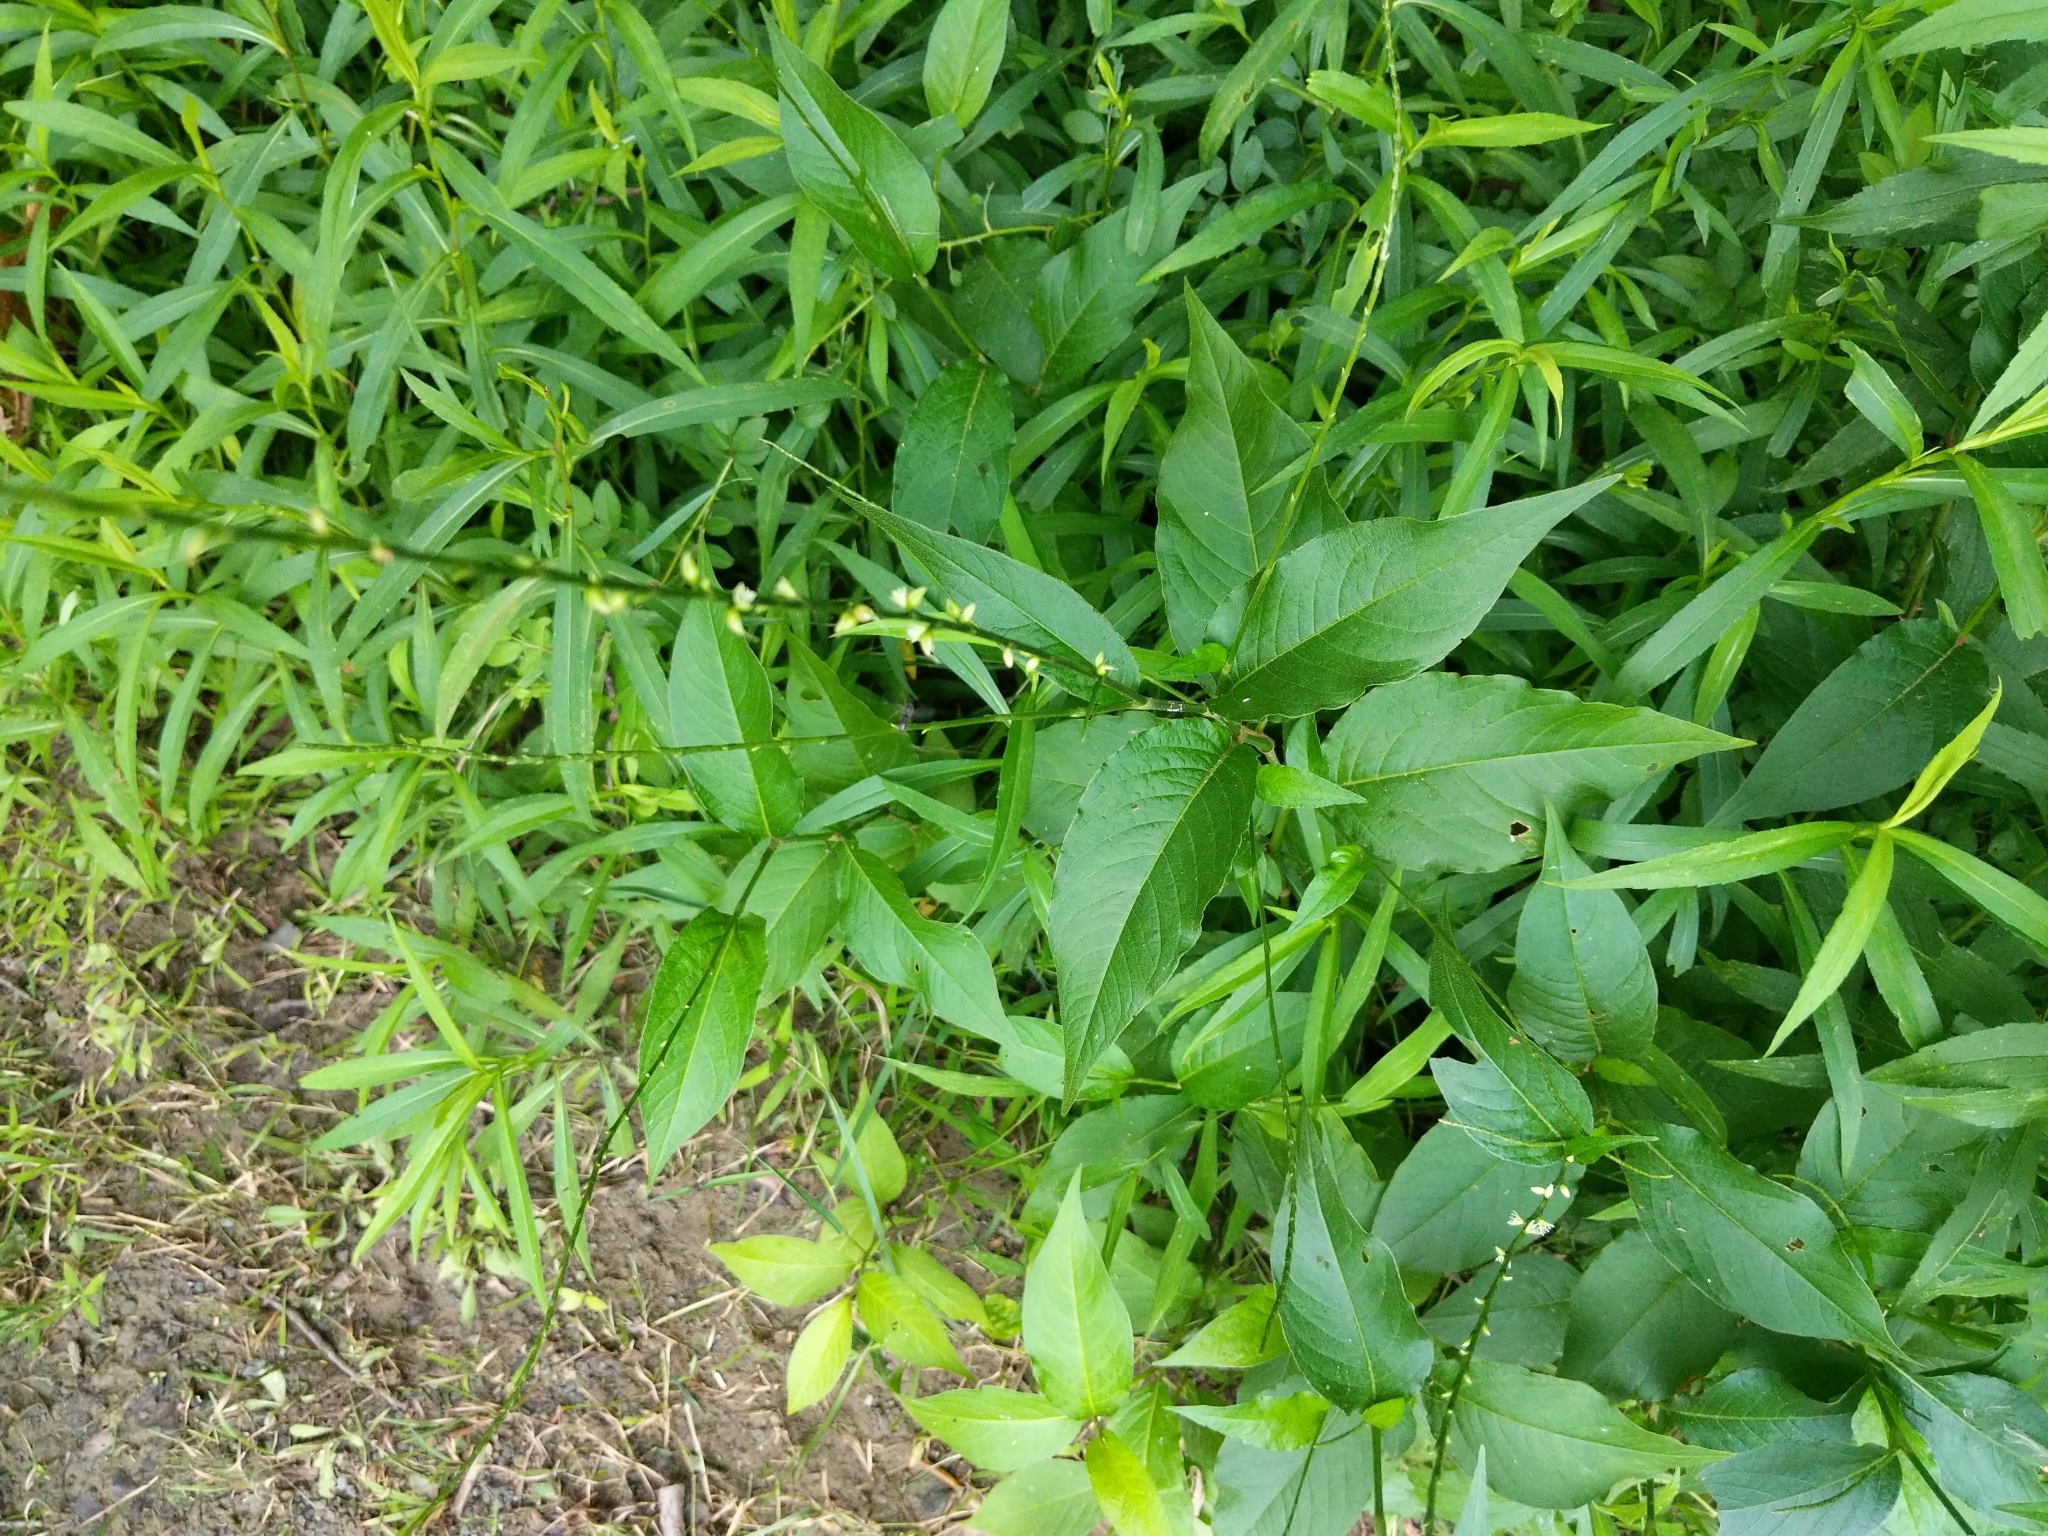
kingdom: Plantae
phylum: Tracheophyta
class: Magnoliopsida
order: Caryophyllales
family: Polygonaceae
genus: Persicaria
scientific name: Persicaria virginiana
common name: Jumpseed
